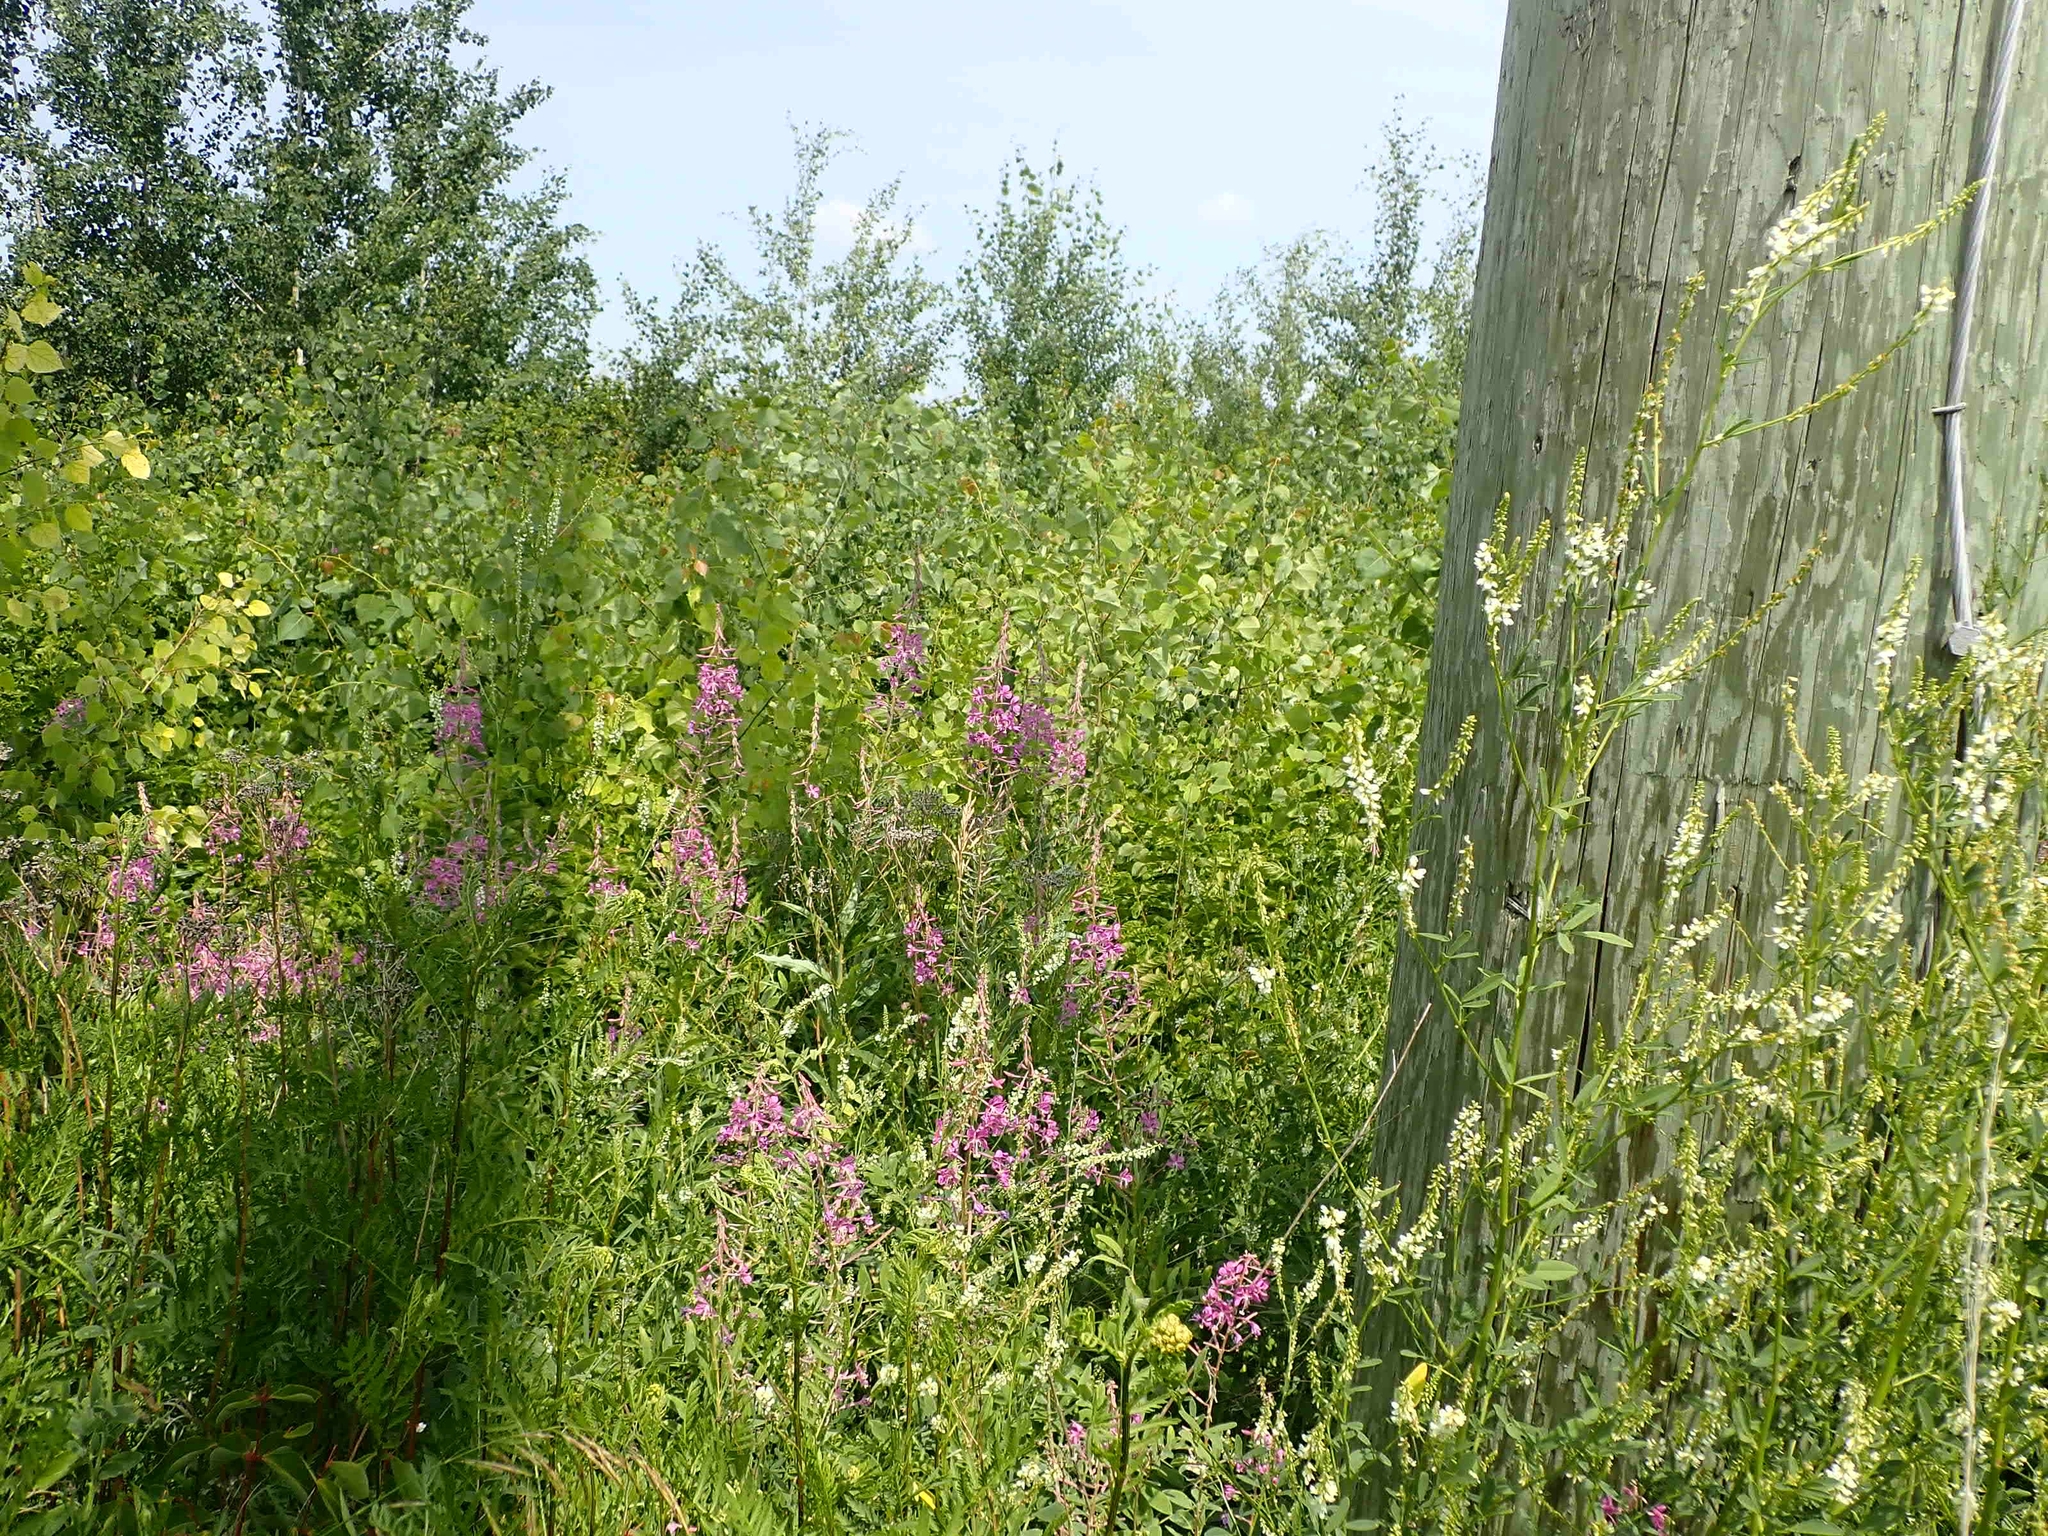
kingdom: Plantae
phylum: Tracheophyta
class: Magnoliopsida
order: Myrtales
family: Onagraceae
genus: Chamaenerion
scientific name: Chamaenerion angustifolium
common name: Fireweed
